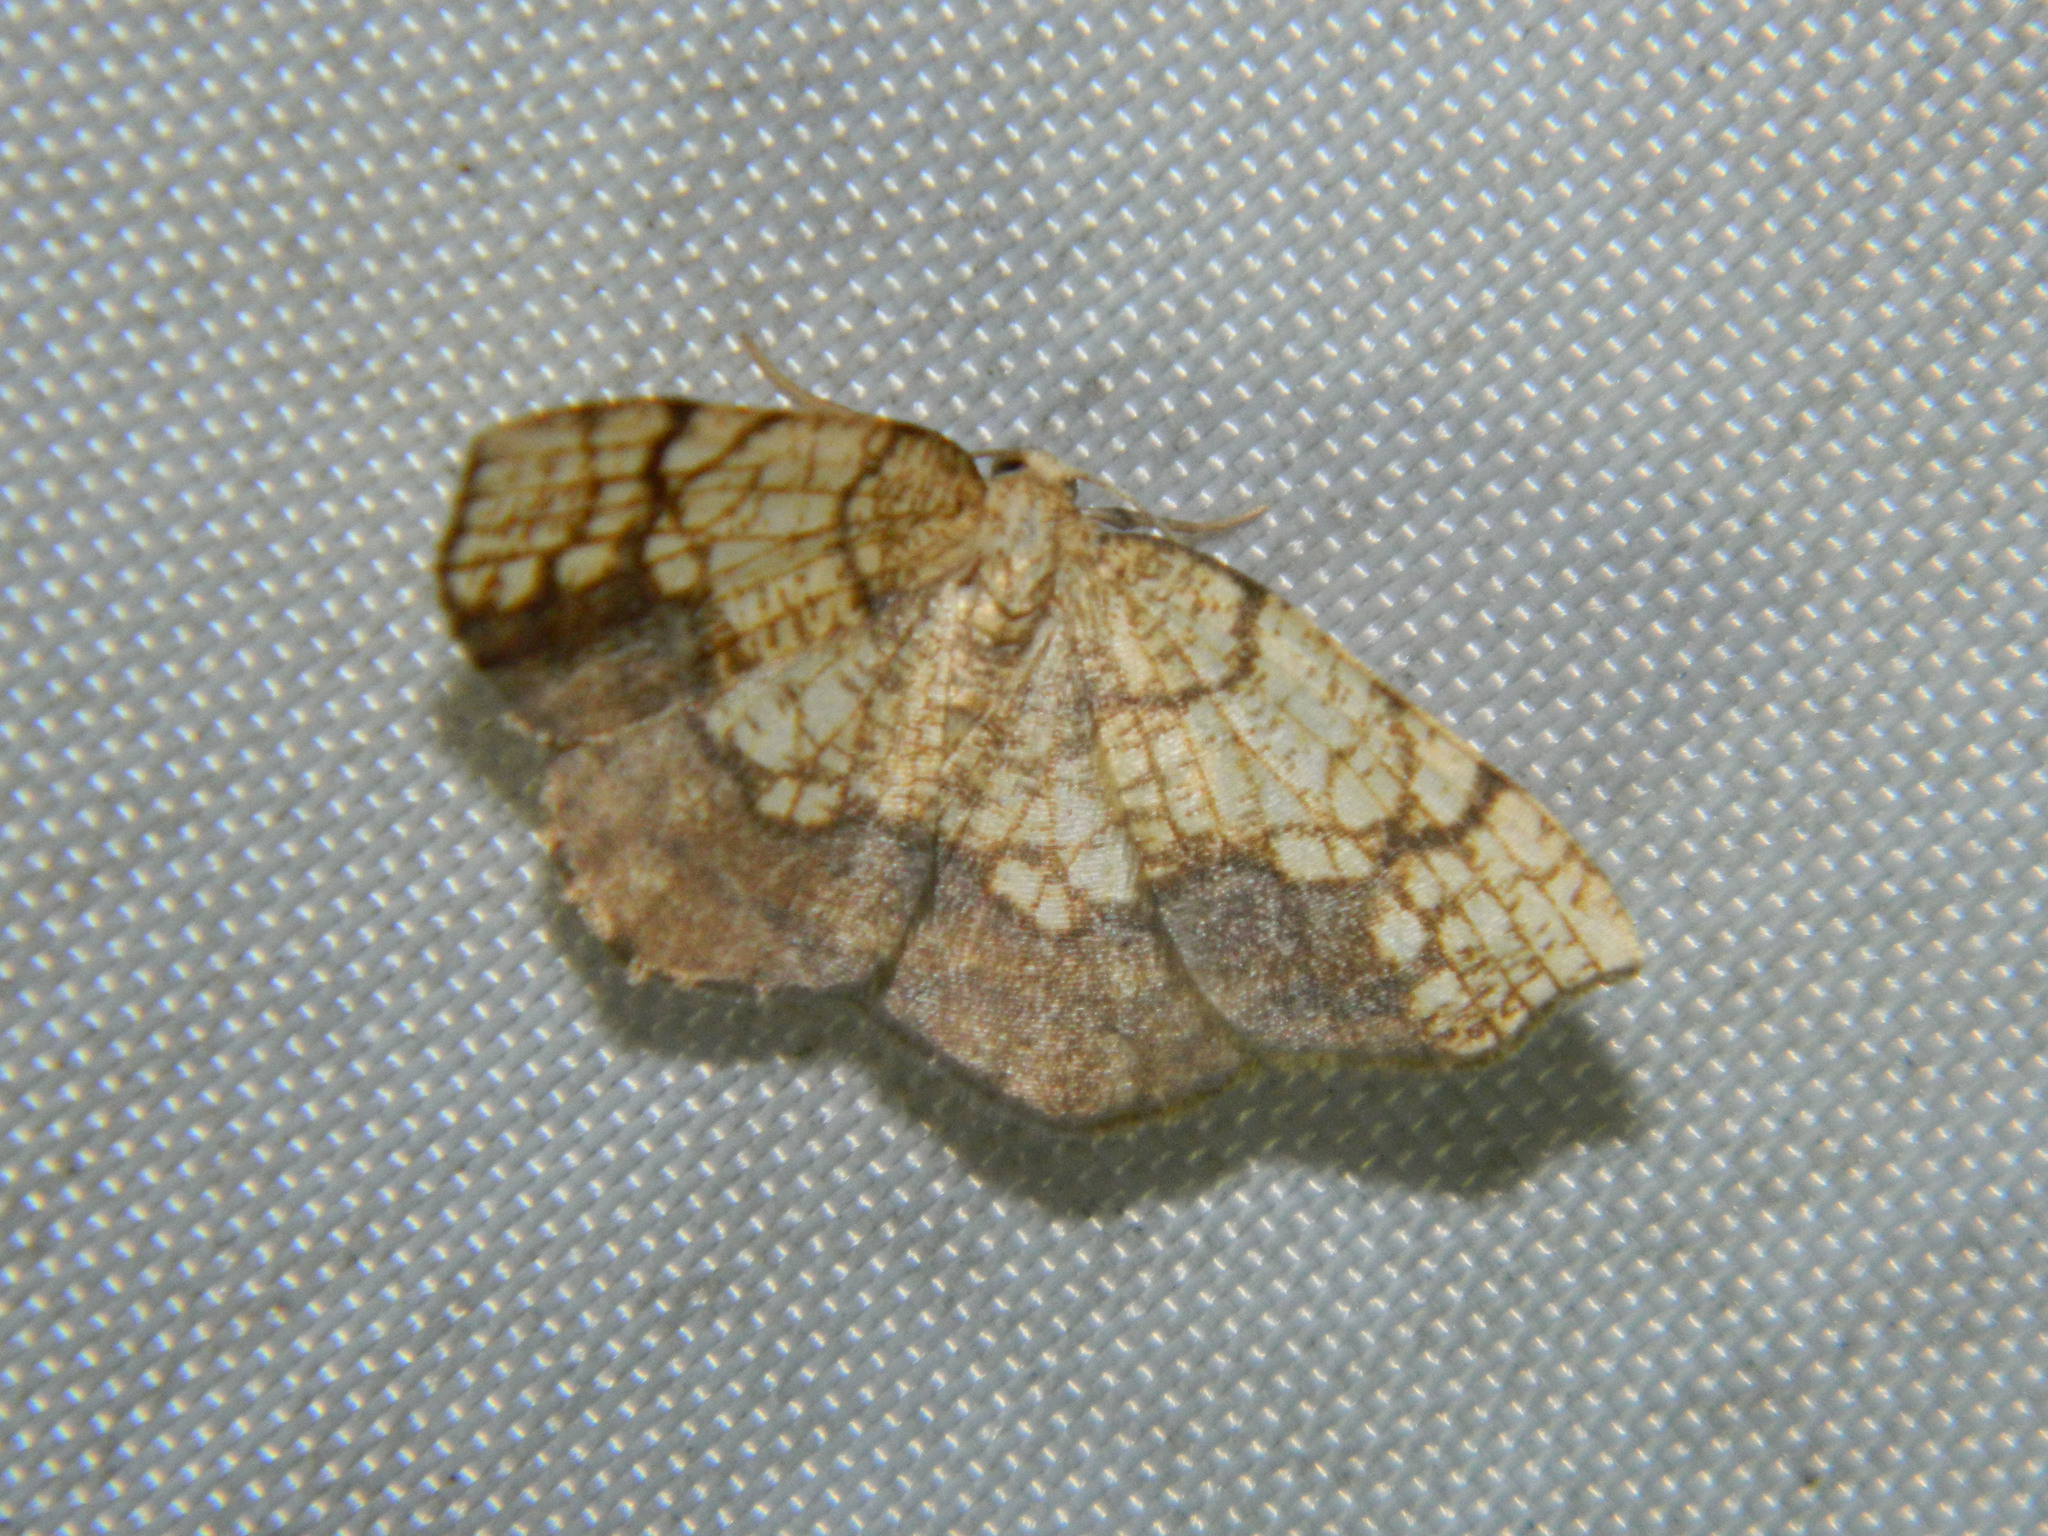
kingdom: Animalia
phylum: Arthropoda
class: Insecta
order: Lepidoptera
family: Geometridae
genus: Nematocampa
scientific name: Nematocampa resistaria
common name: Horned spanworm moth
